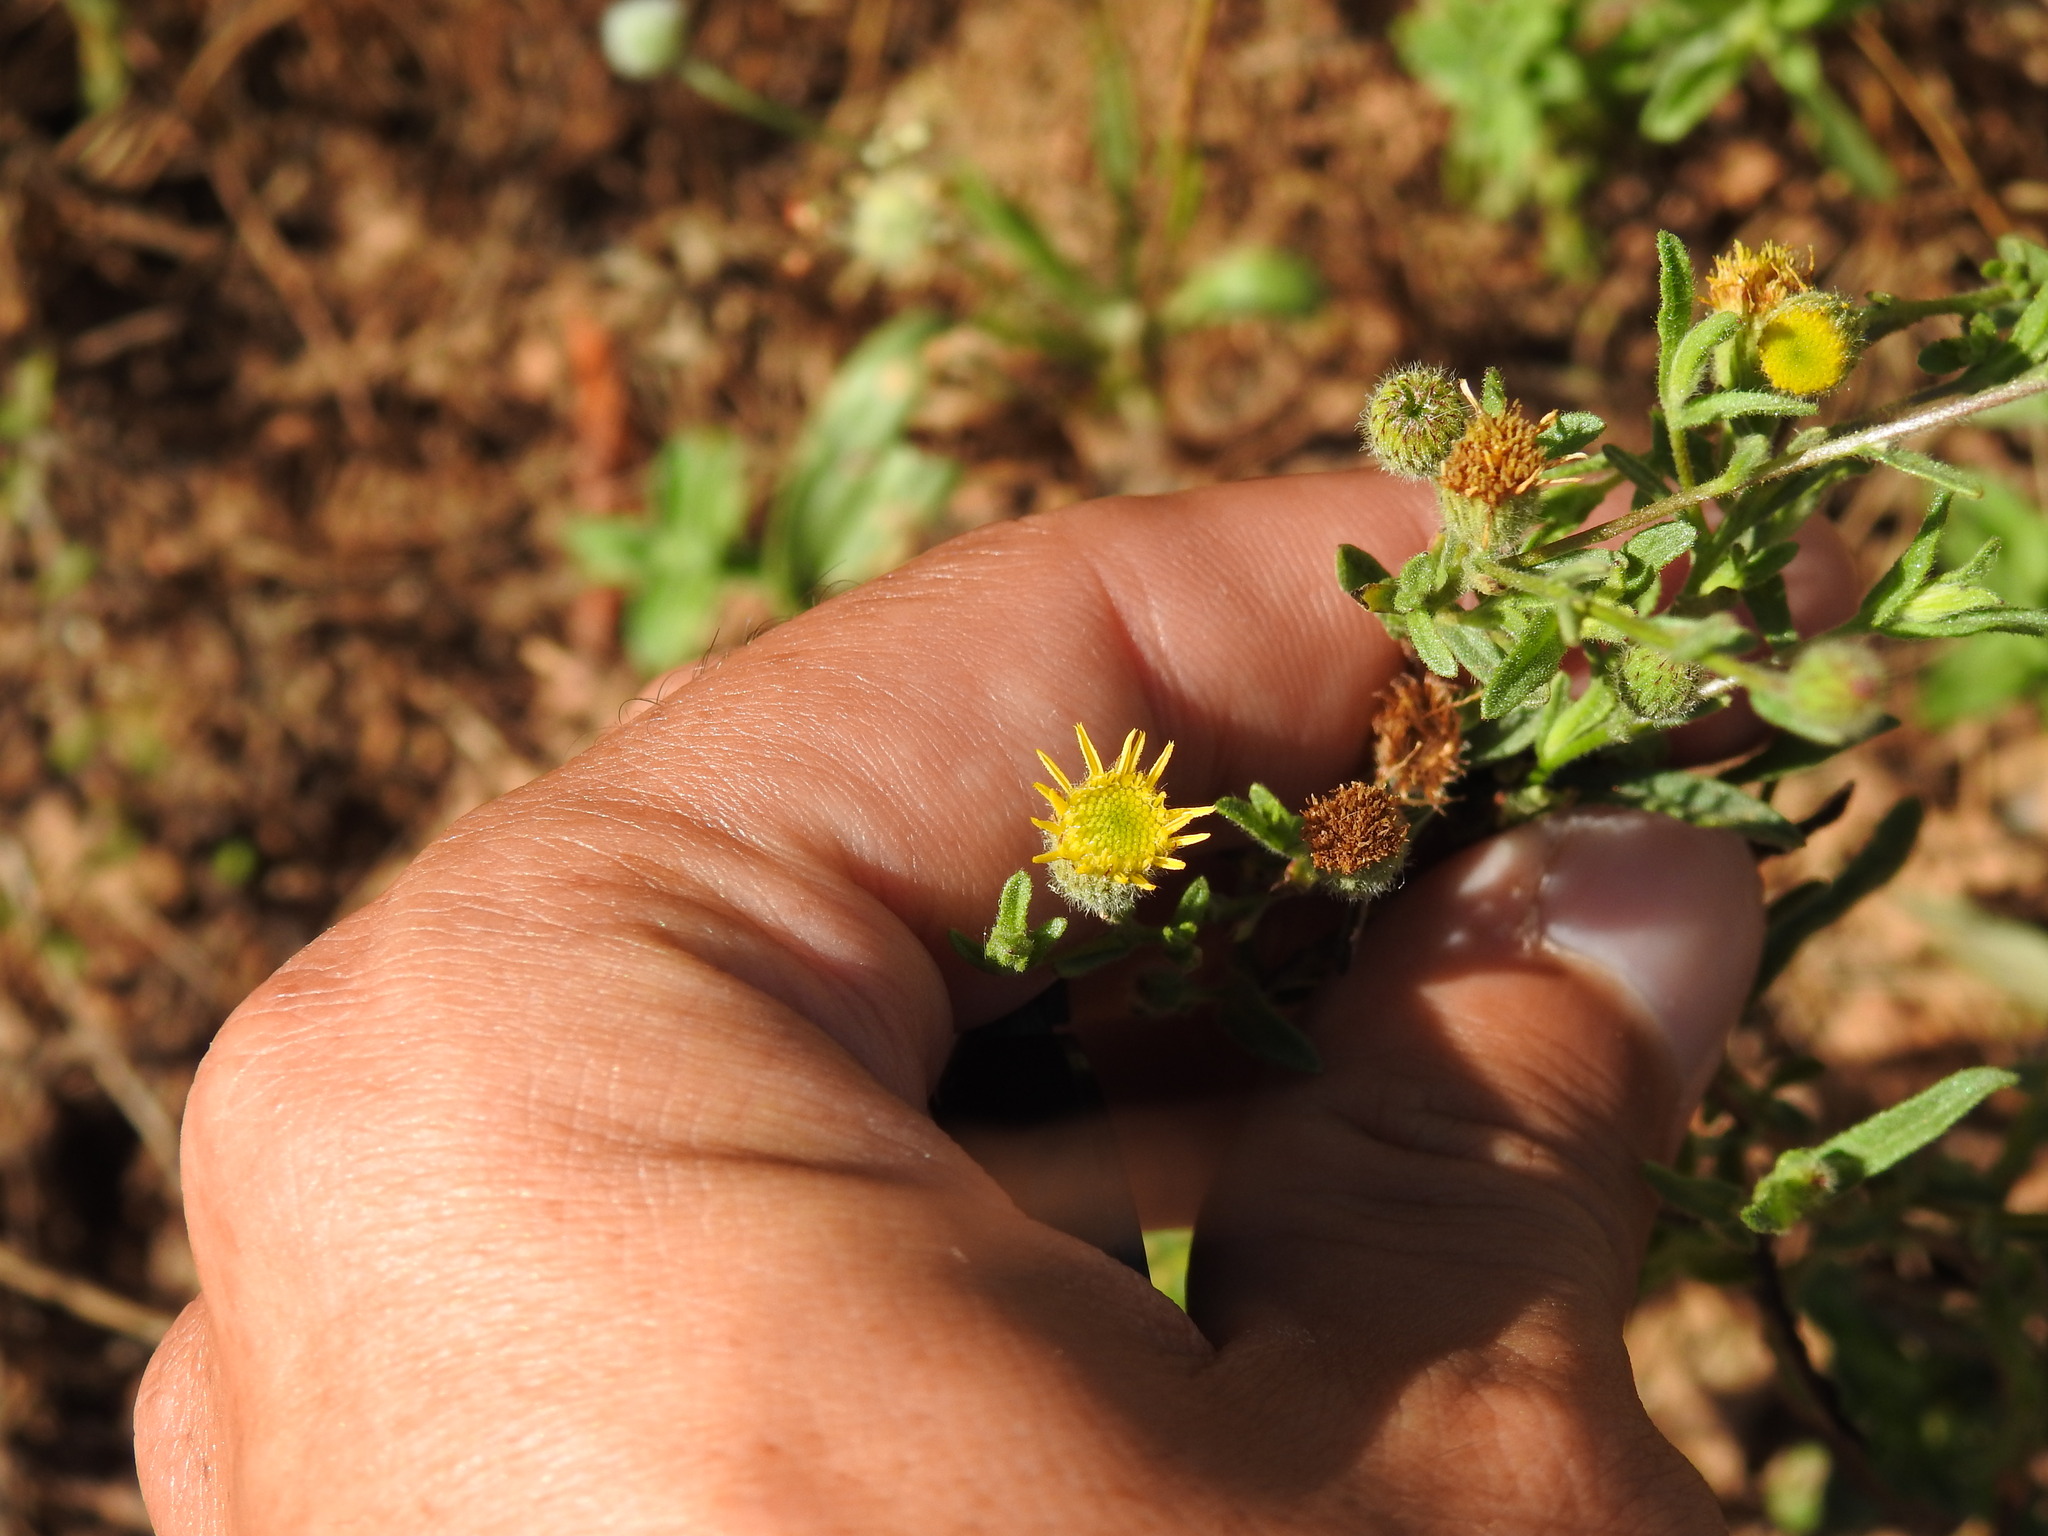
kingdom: Plantae
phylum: Tracheophyta
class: Magnoliopsida
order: Asterales
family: Asteraceae
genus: Pulicaria
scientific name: Pulicaria paludosa
